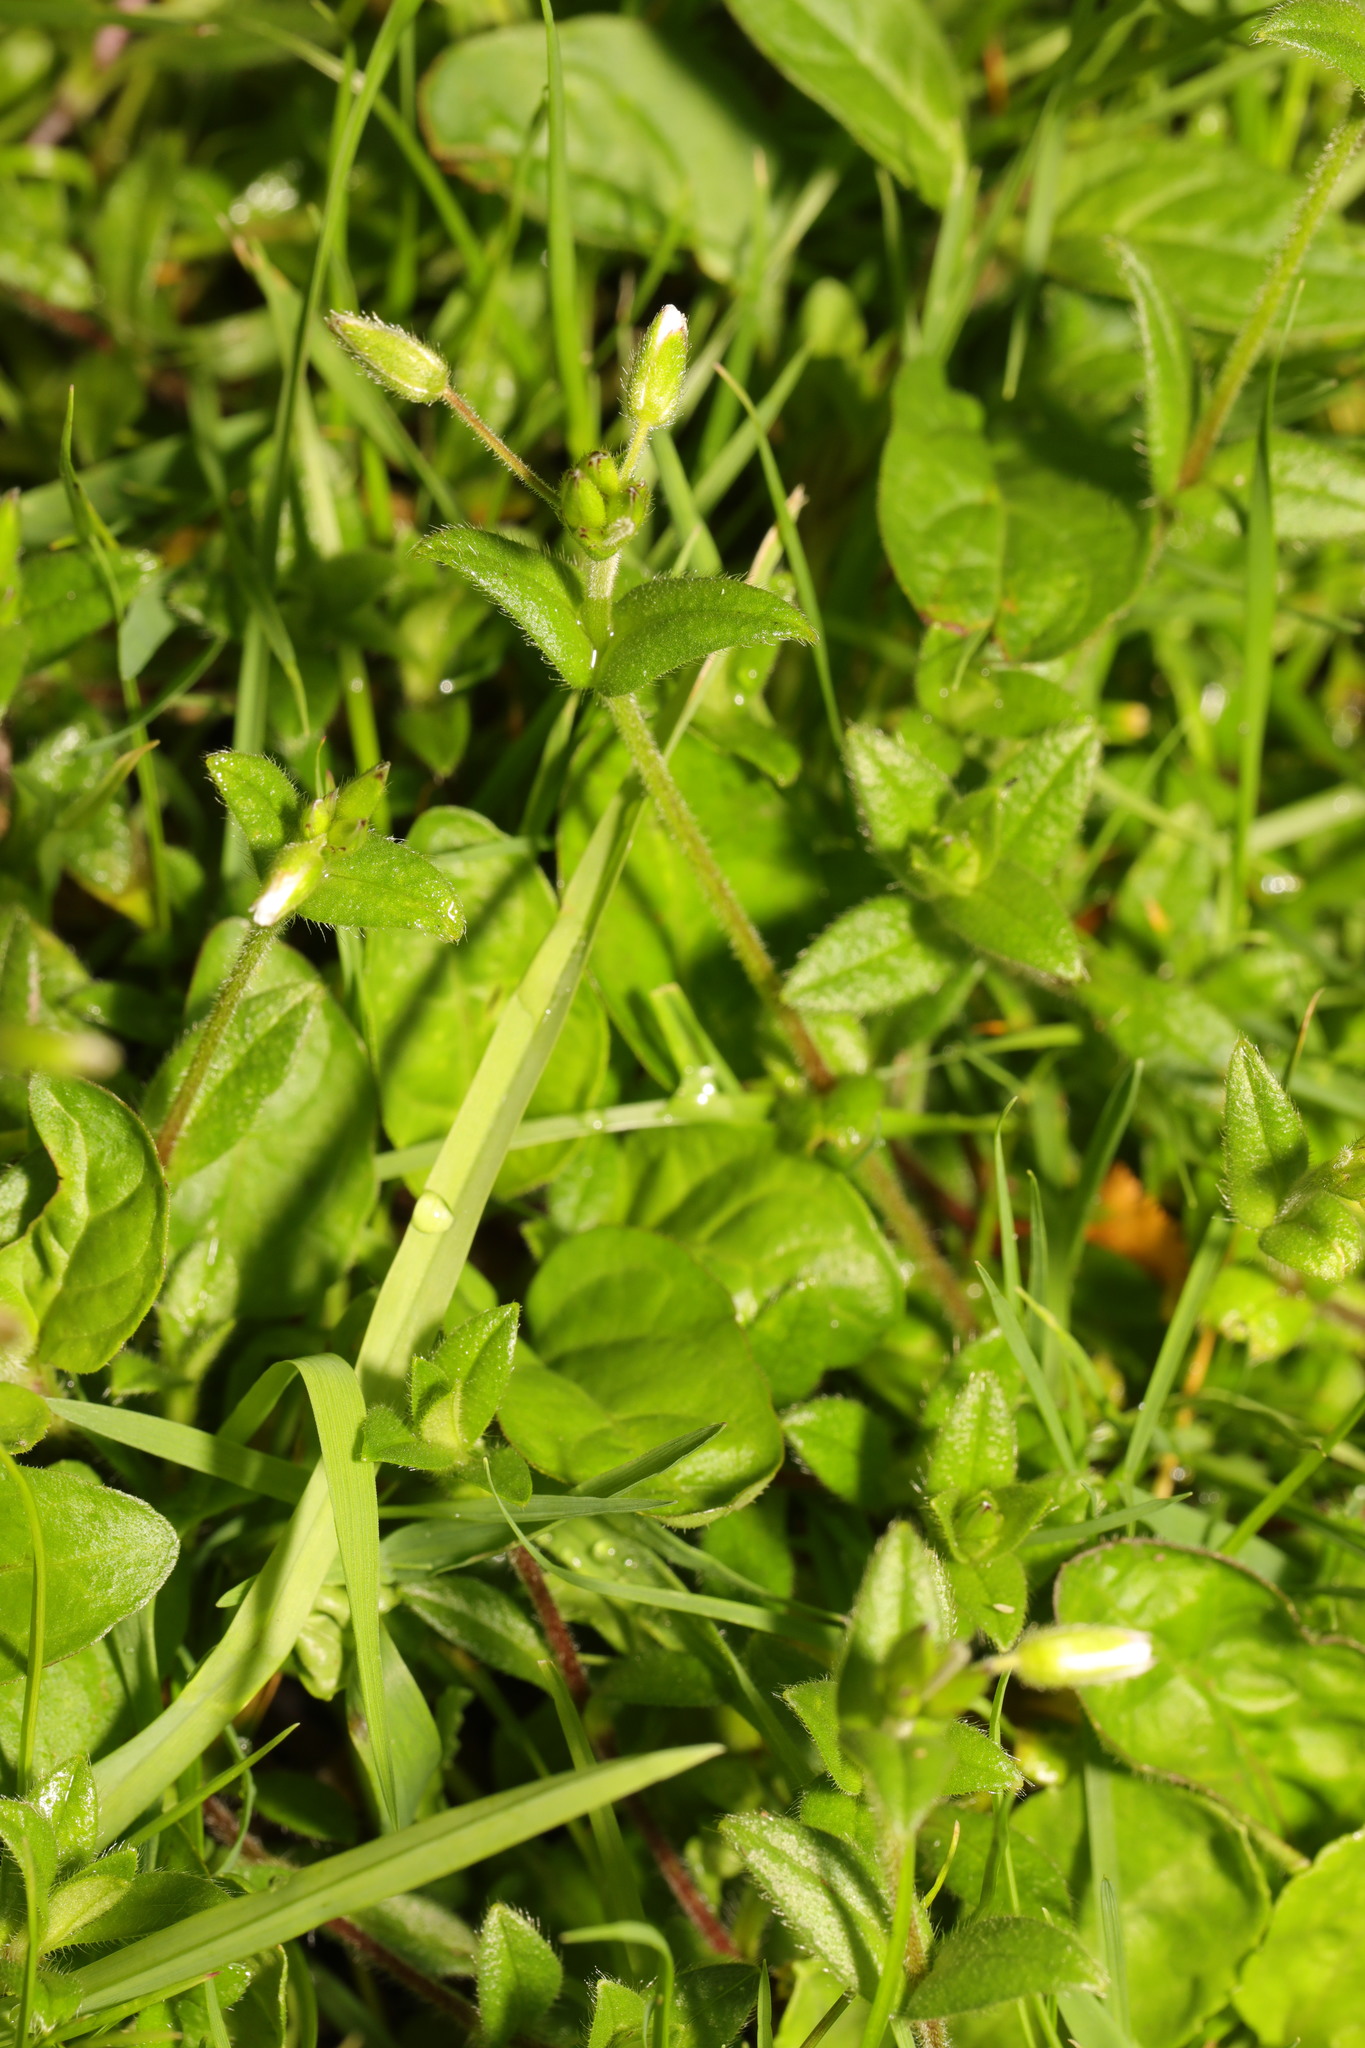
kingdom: Plantae
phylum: Tracheophyta
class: Magnoliopsida
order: Caryophyllales
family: Caryophyllaceae
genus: Cerastium
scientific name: Cerastium fontanum
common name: Common mouse-ear
